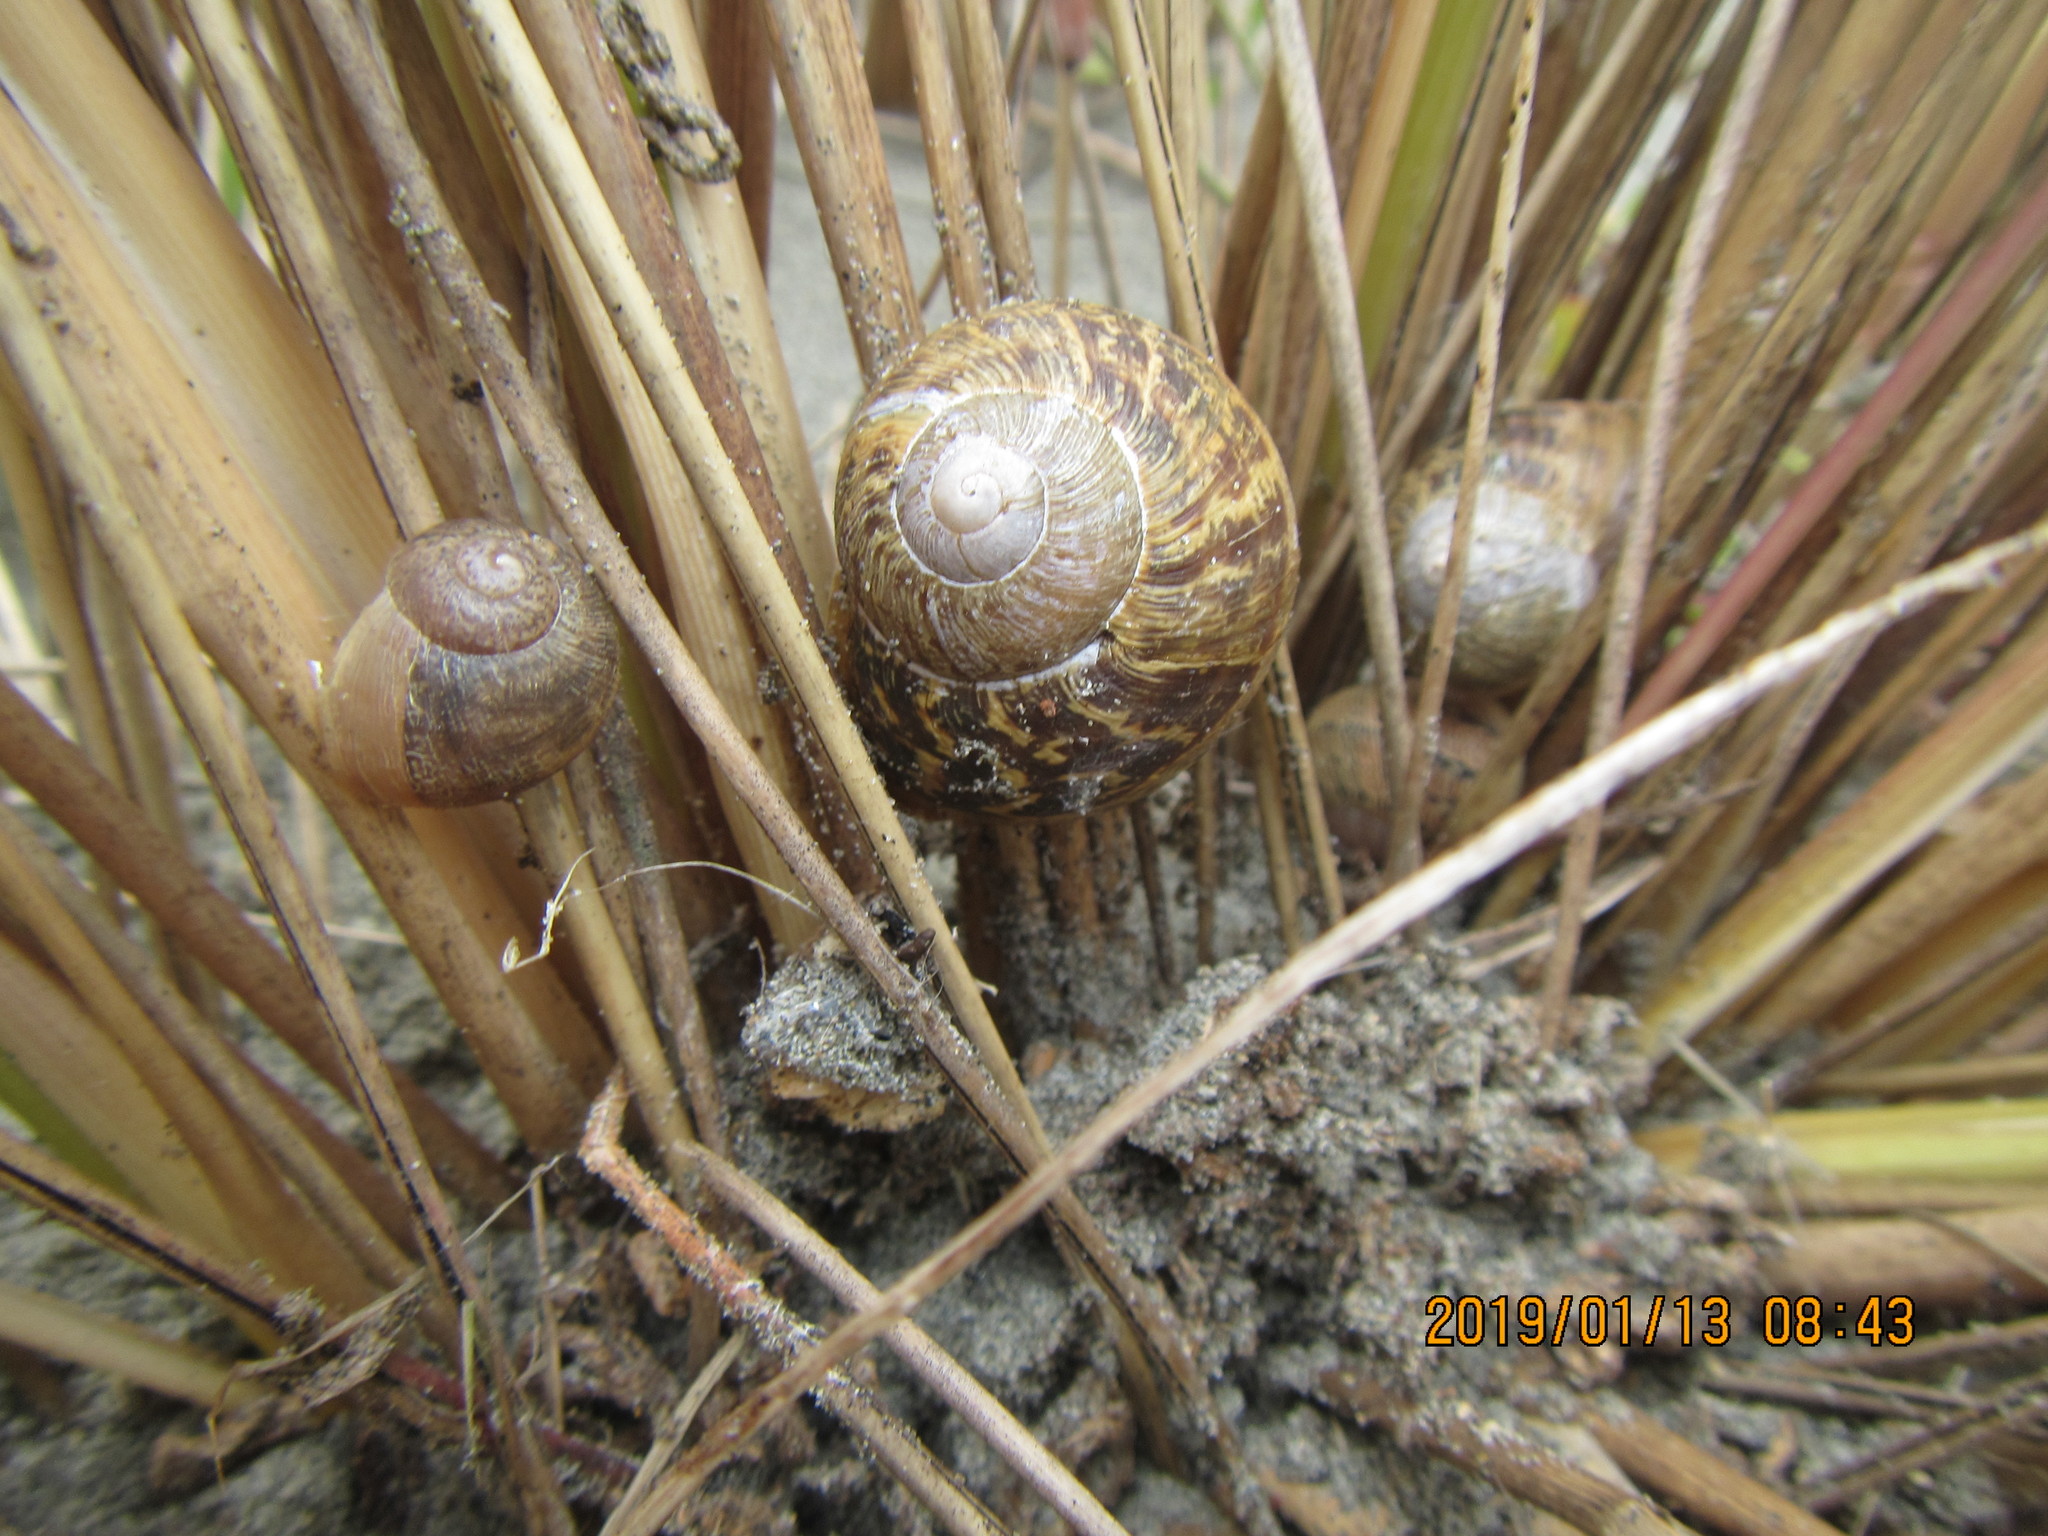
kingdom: Animalia
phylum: Mollusca
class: Gastropoda
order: Stylommatophora
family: Helicidae
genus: Cornu
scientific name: Cornu aspersum
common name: Brown garden snail
